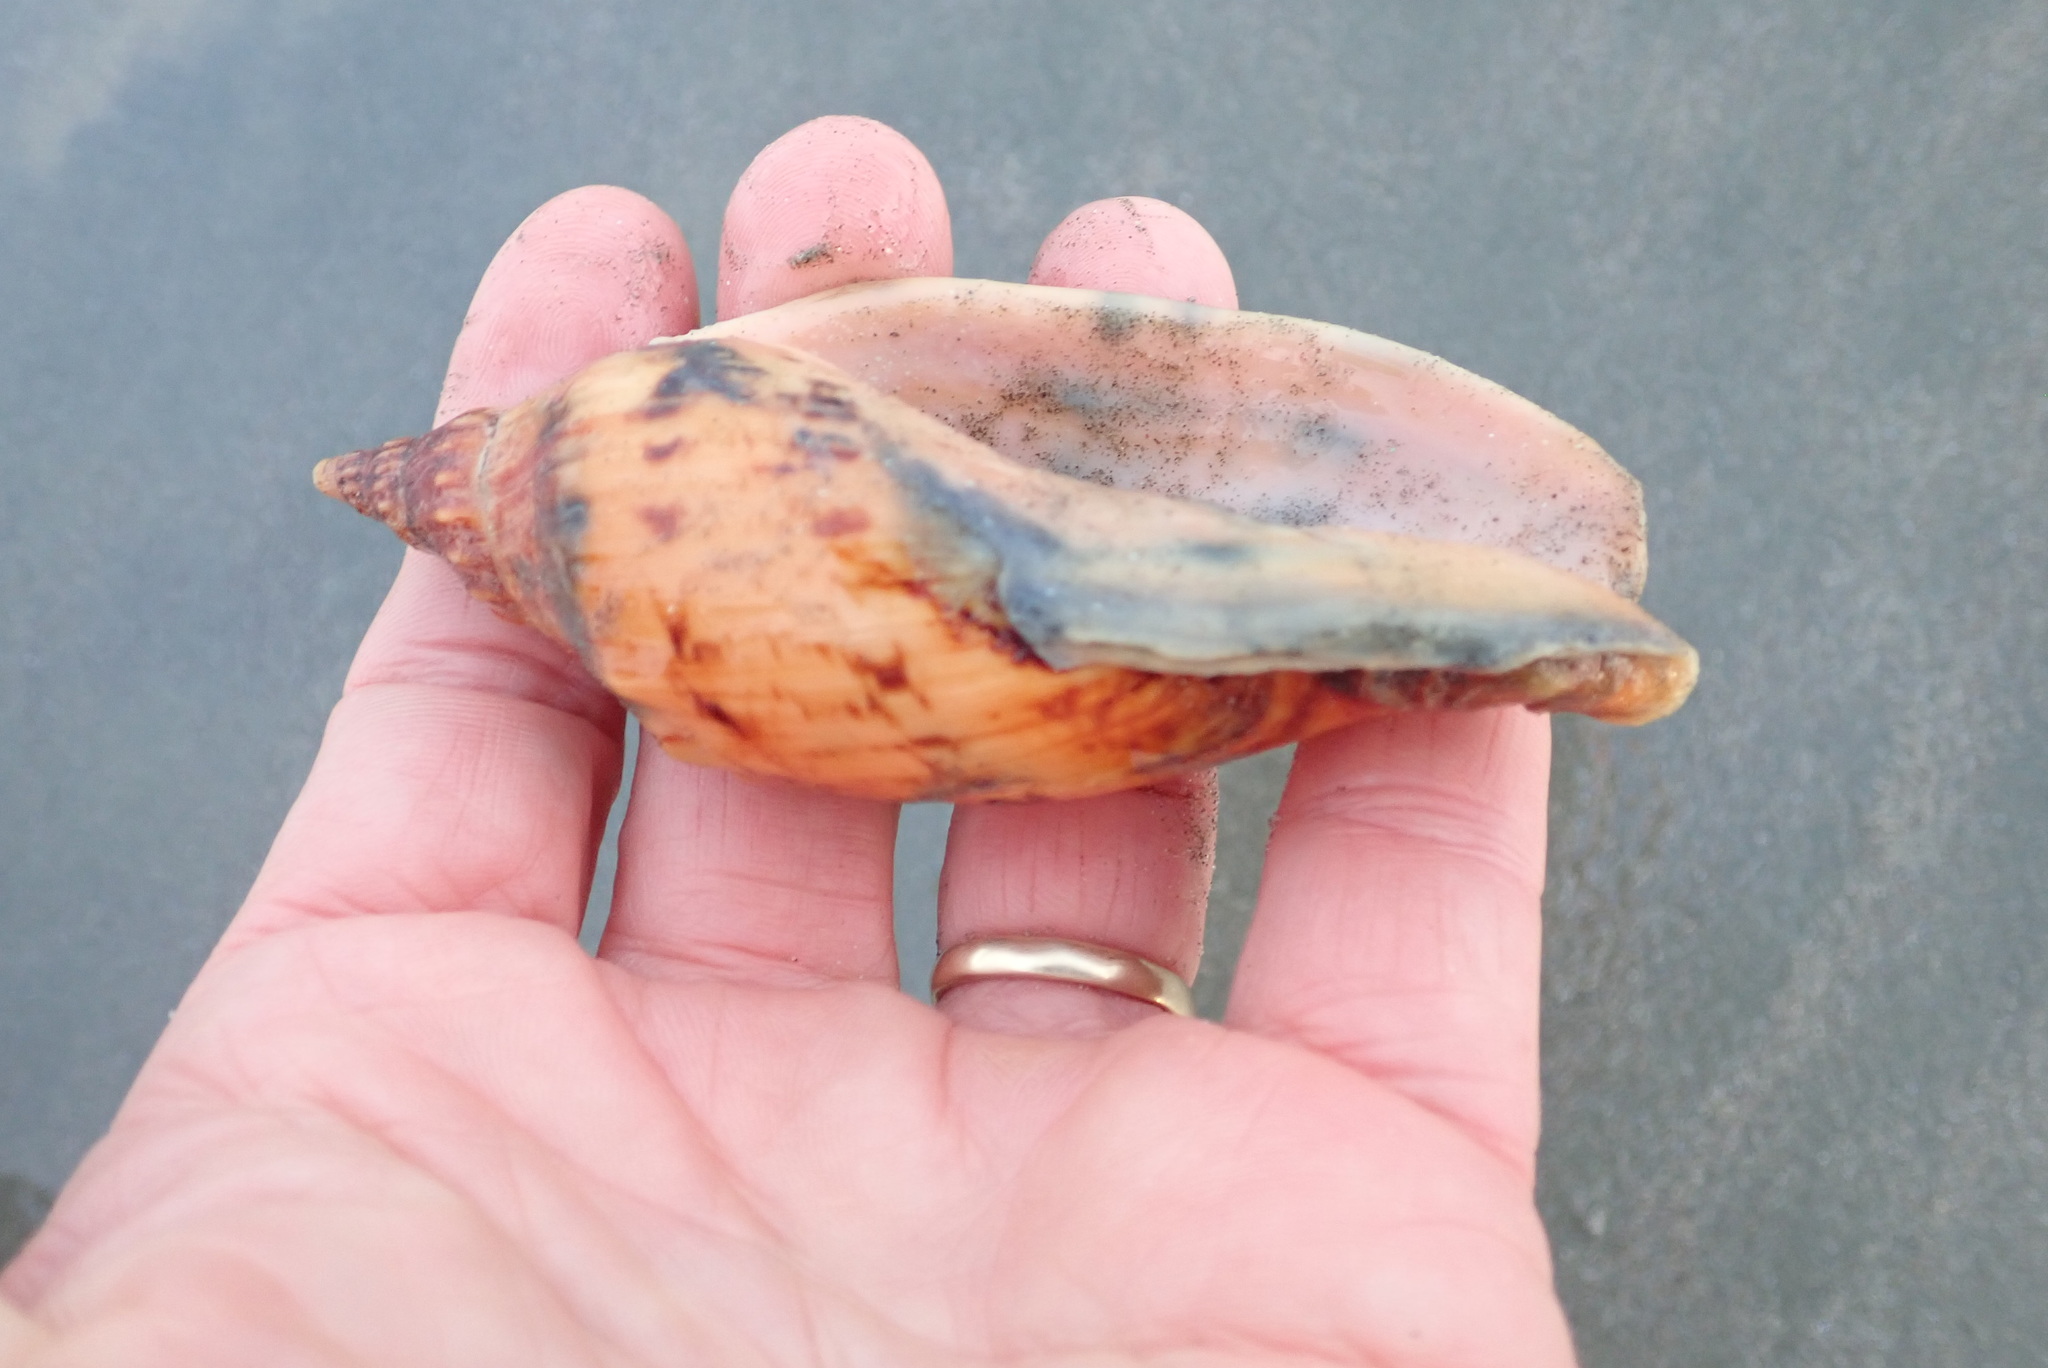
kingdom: Animalia
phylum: Mollusca
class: Gastropoda
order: Neogastropoda
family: Volutidae
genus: Alcithoe
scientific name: Alcithoe arabica
